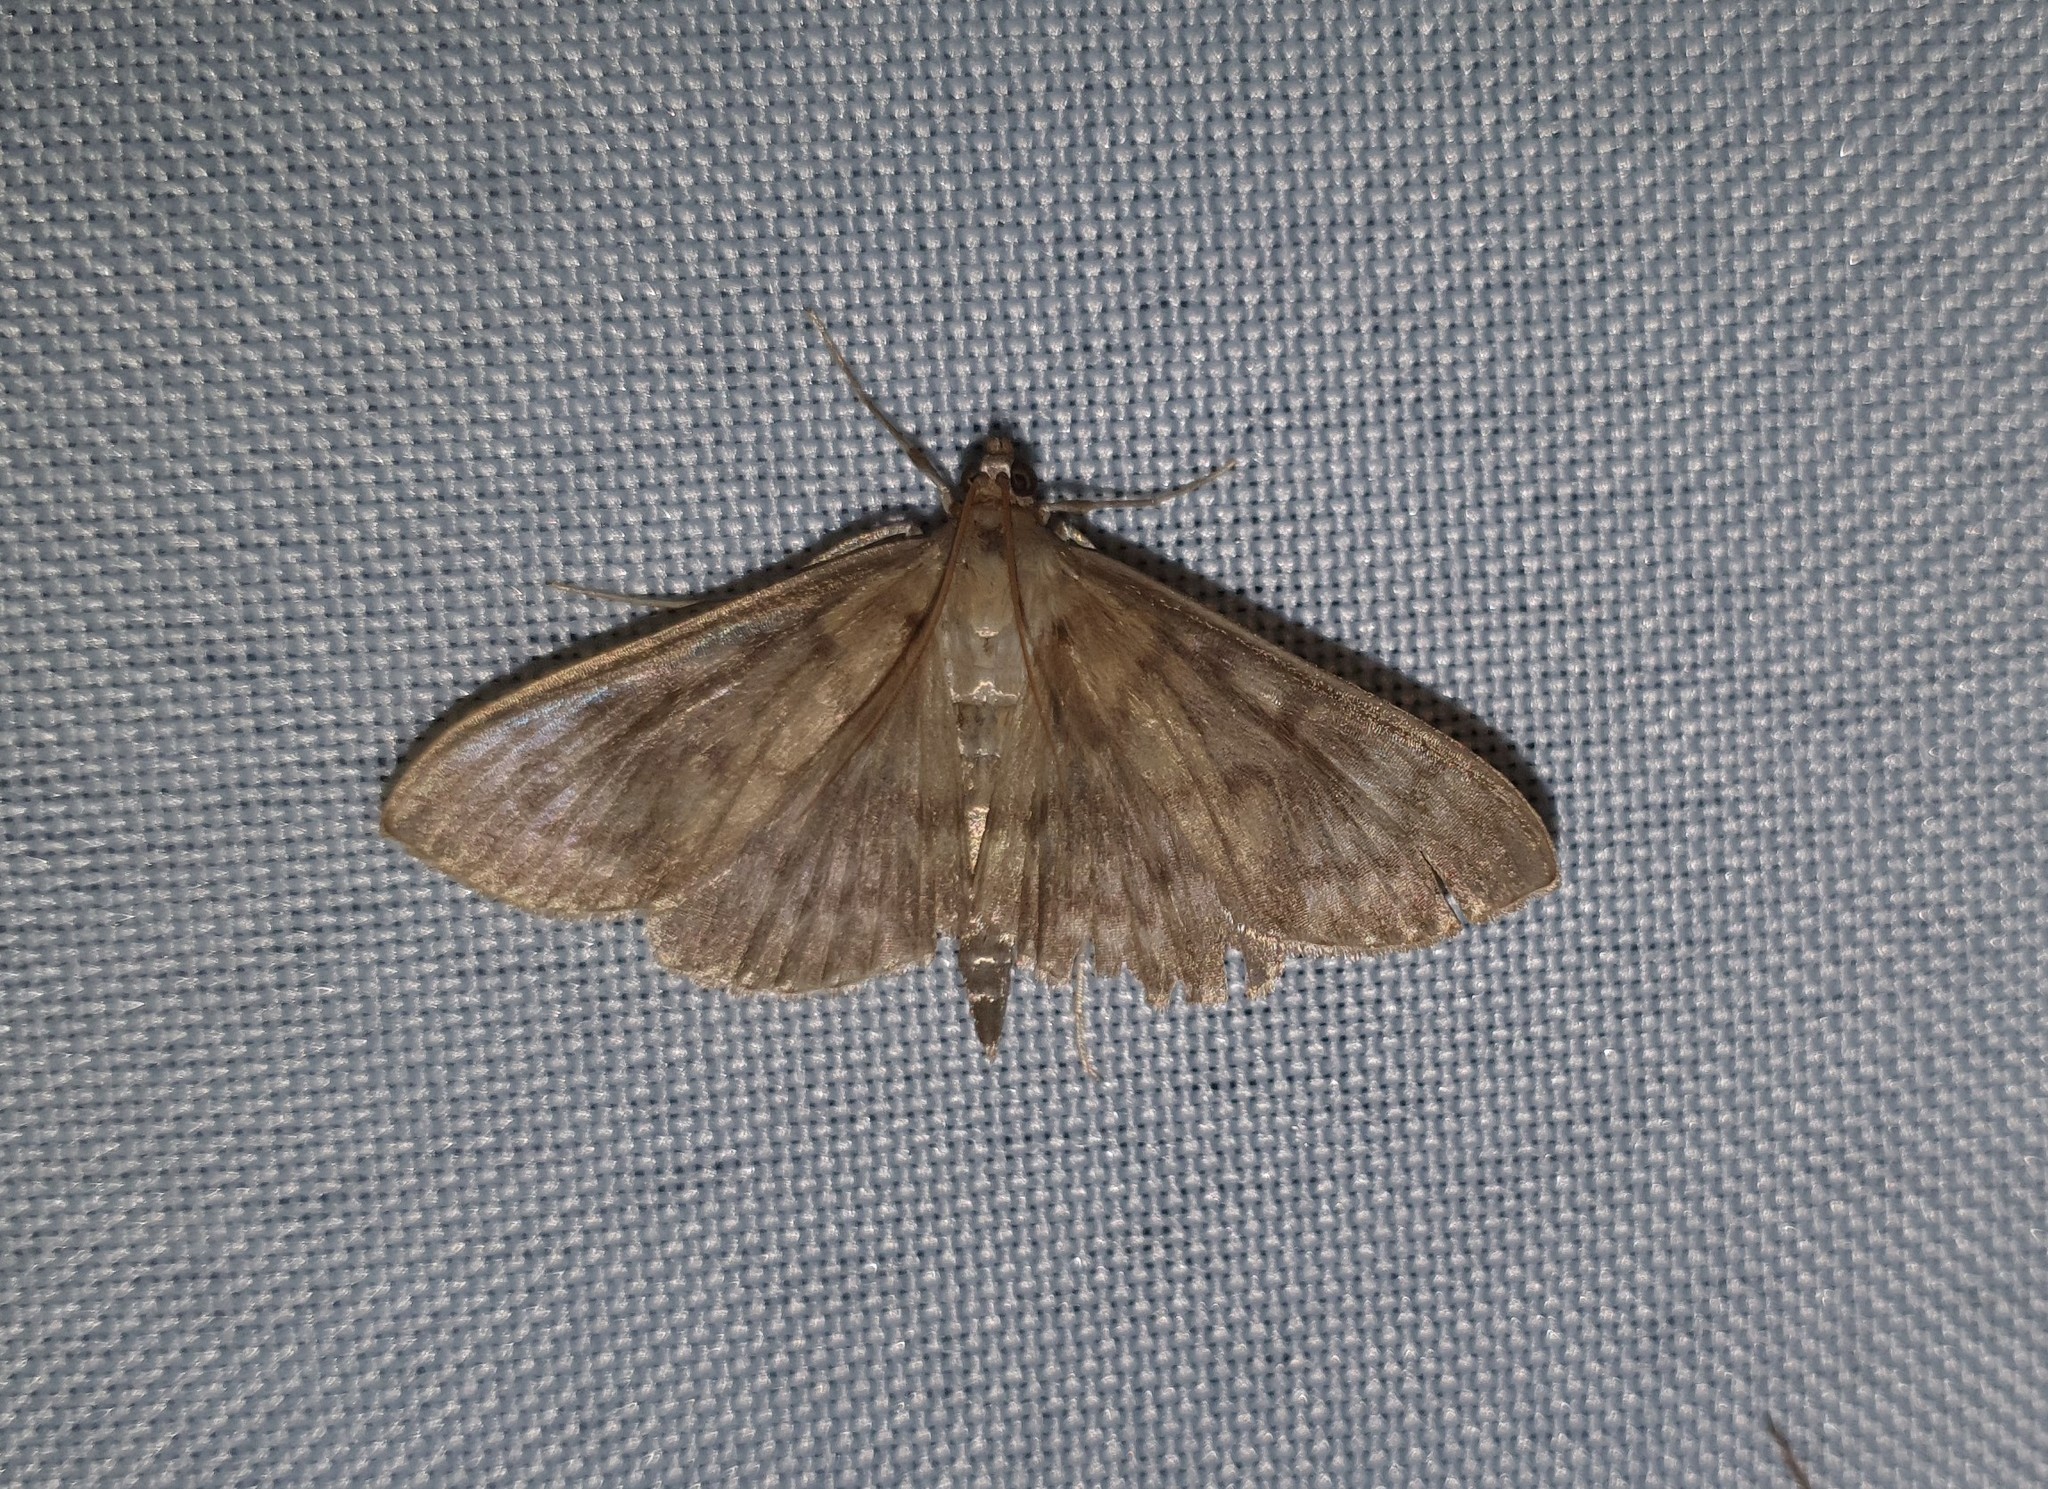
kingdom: Animalia
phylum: Arthropoda
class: Insecta
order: Lepidoptera
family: Crambidae
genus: Patania
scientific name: Patania ruralis
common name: Mother of pearl
